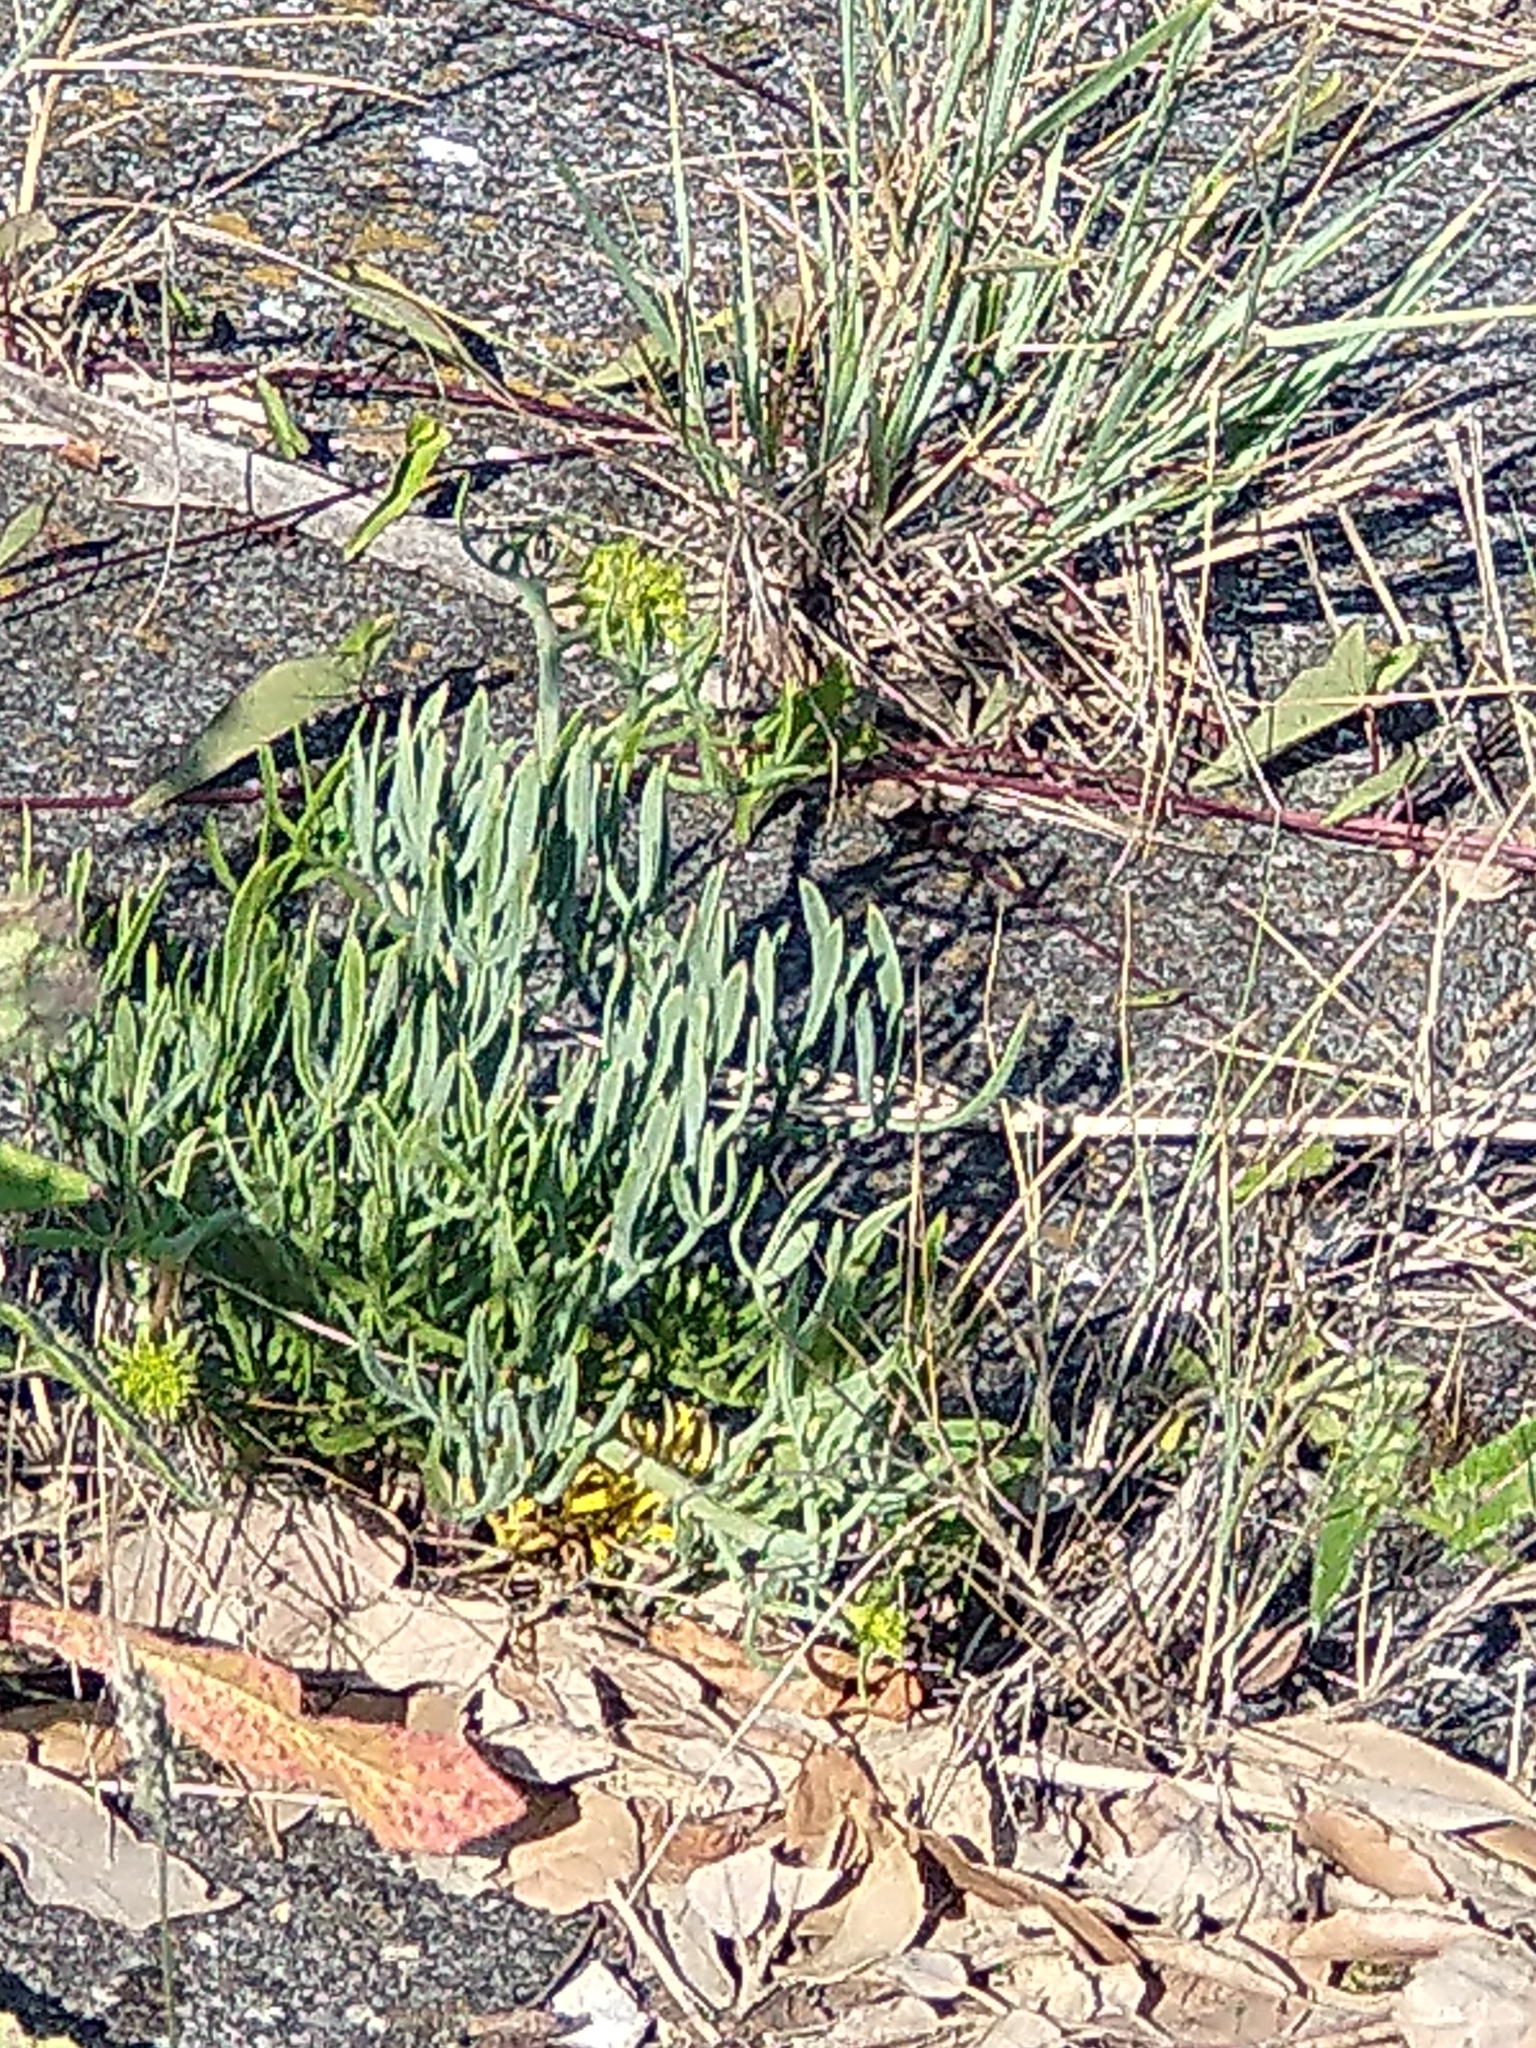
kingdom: Plantae
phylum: Tracheophyta
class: Magnoliopsida
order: Apiales
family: Apiaceae
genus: Crithmum
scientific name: Crithmum maritimum
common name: Rock samphire
